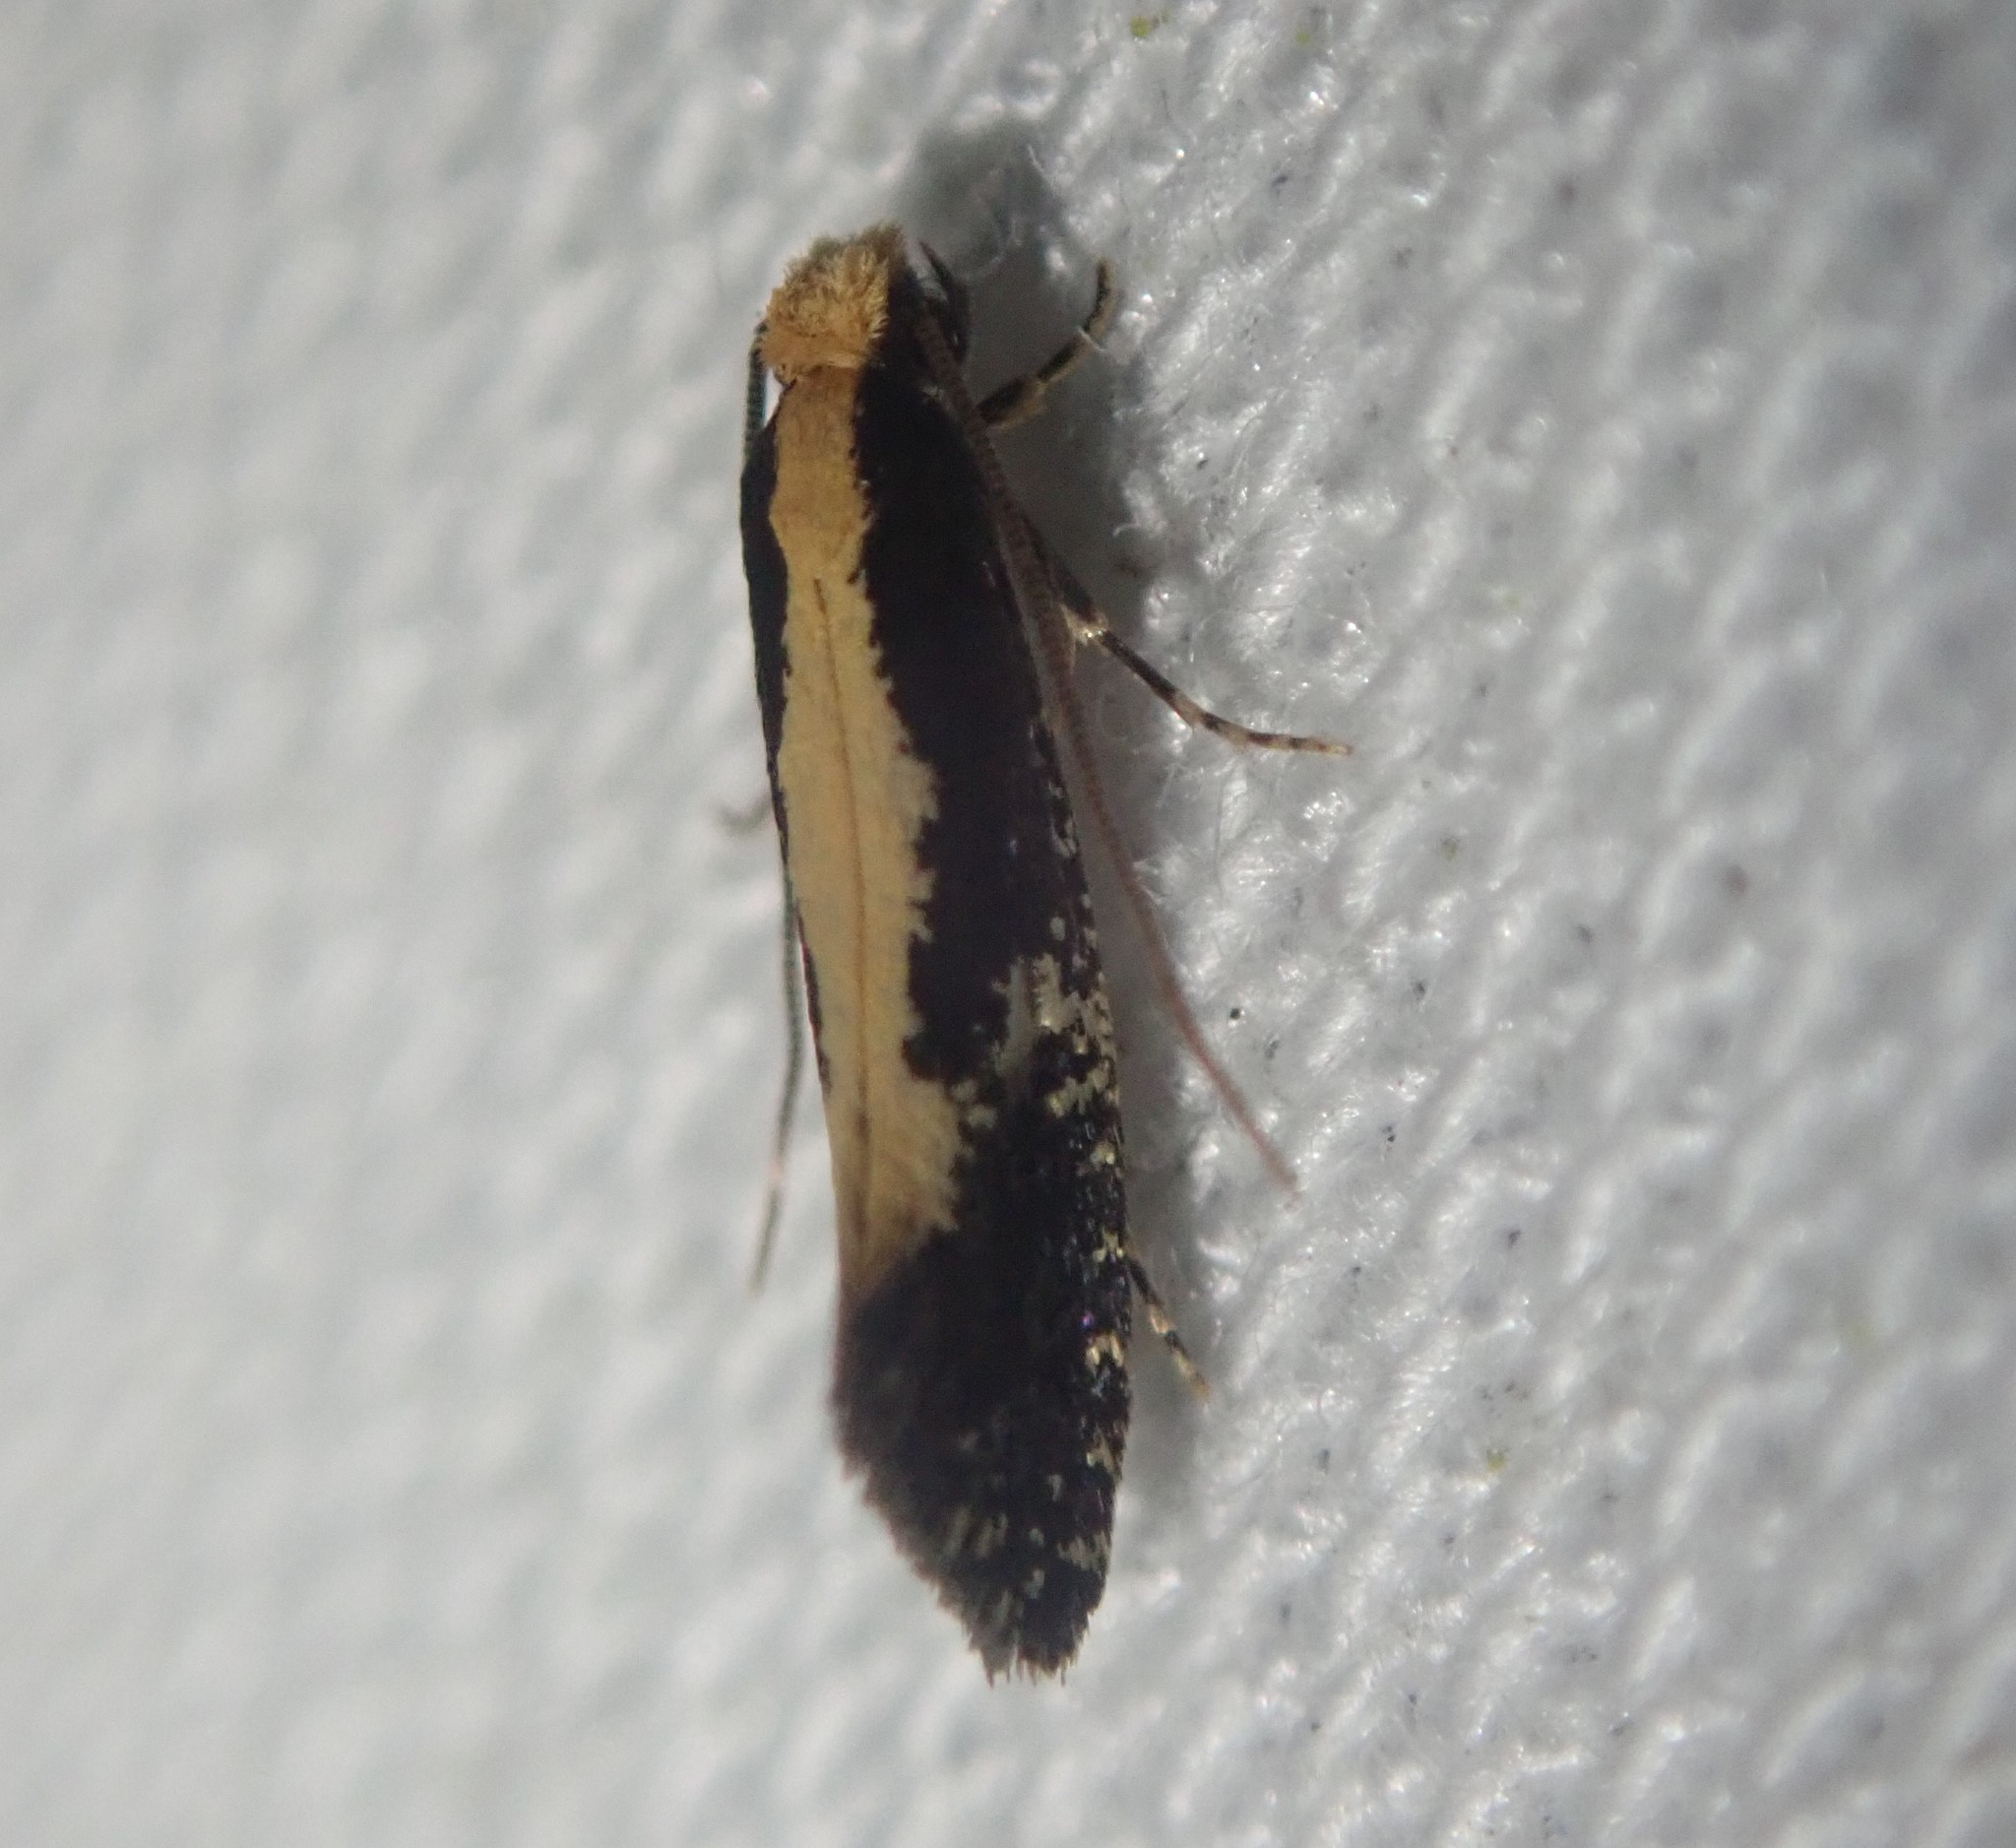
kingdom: Animalia
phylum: Arthropoda
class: Insecta
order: Lepidoptera
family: Tineidae
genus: Monopis
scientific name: Monopis obviella
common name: Tineid moth
